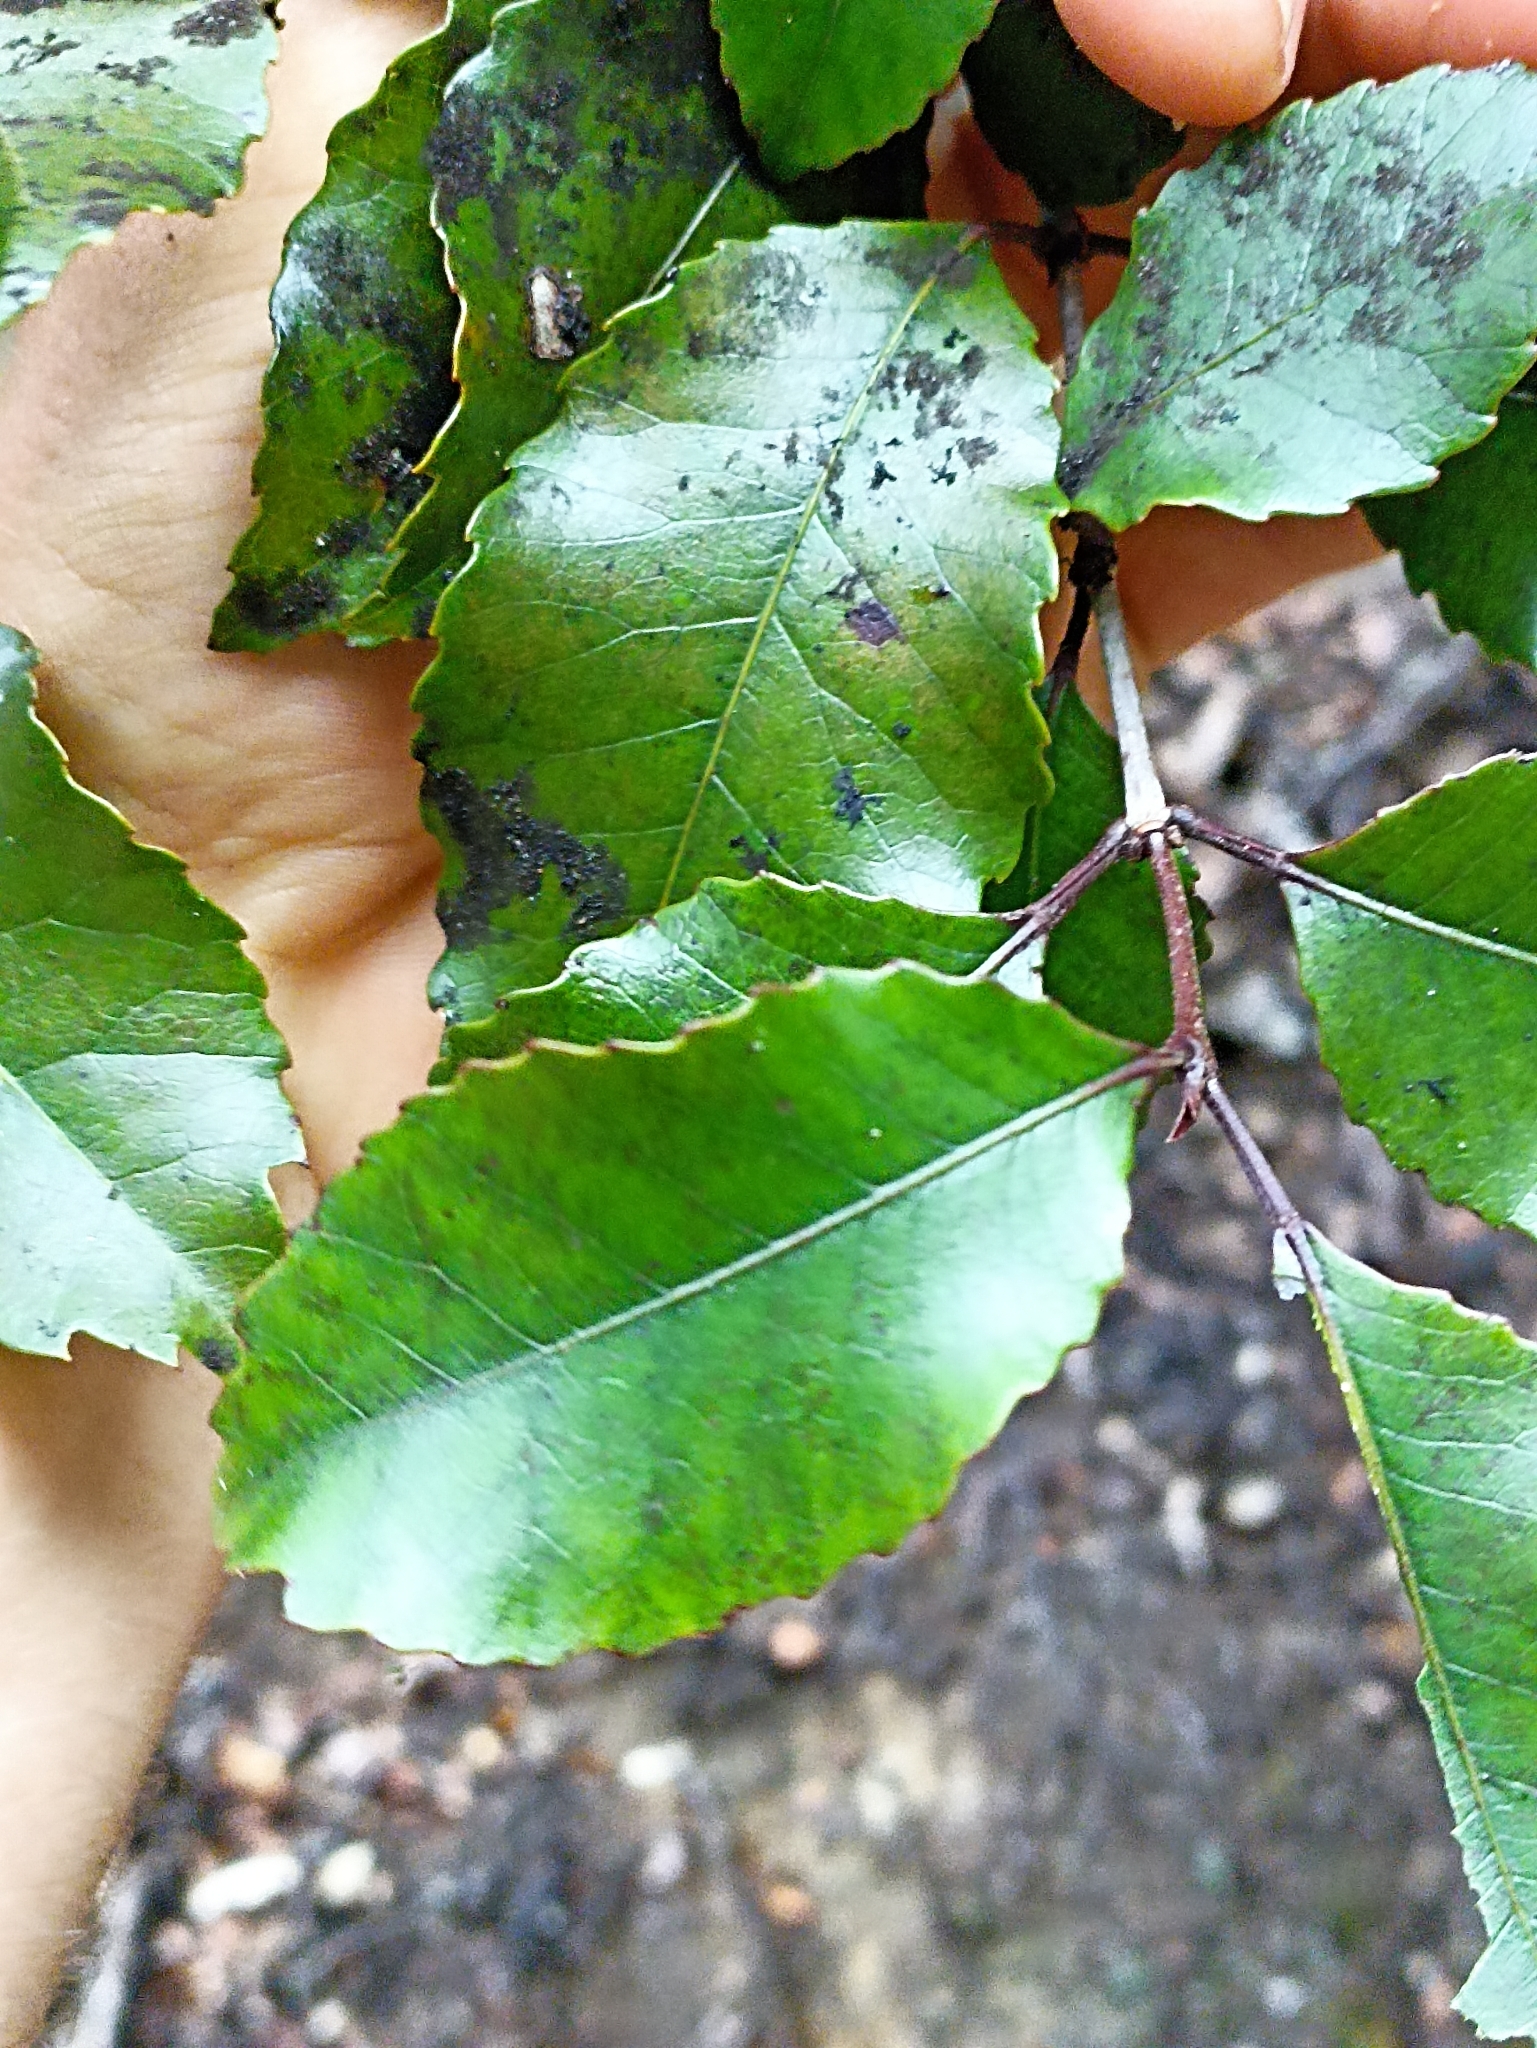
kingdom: Plantae
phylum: Tracheophyta
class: Magnoliopsida
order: Oxalidales
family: Cunoniaceae
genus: Pterophylla
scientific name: Pterophylla racemosa
